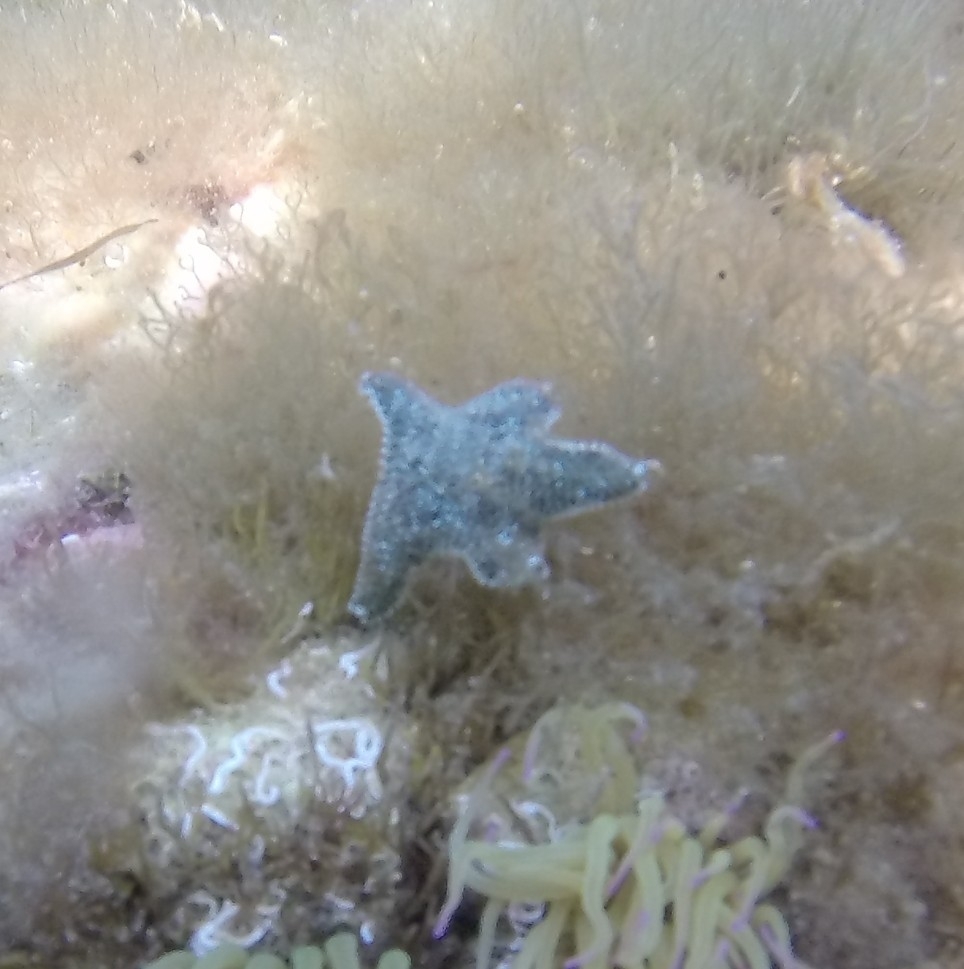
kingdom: Animalia
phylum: Echinodermata
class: Asteroidea
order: Valvatida
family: Asterinidae
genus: Asterina
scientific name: Asterina gibbosa
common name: Cushion star
